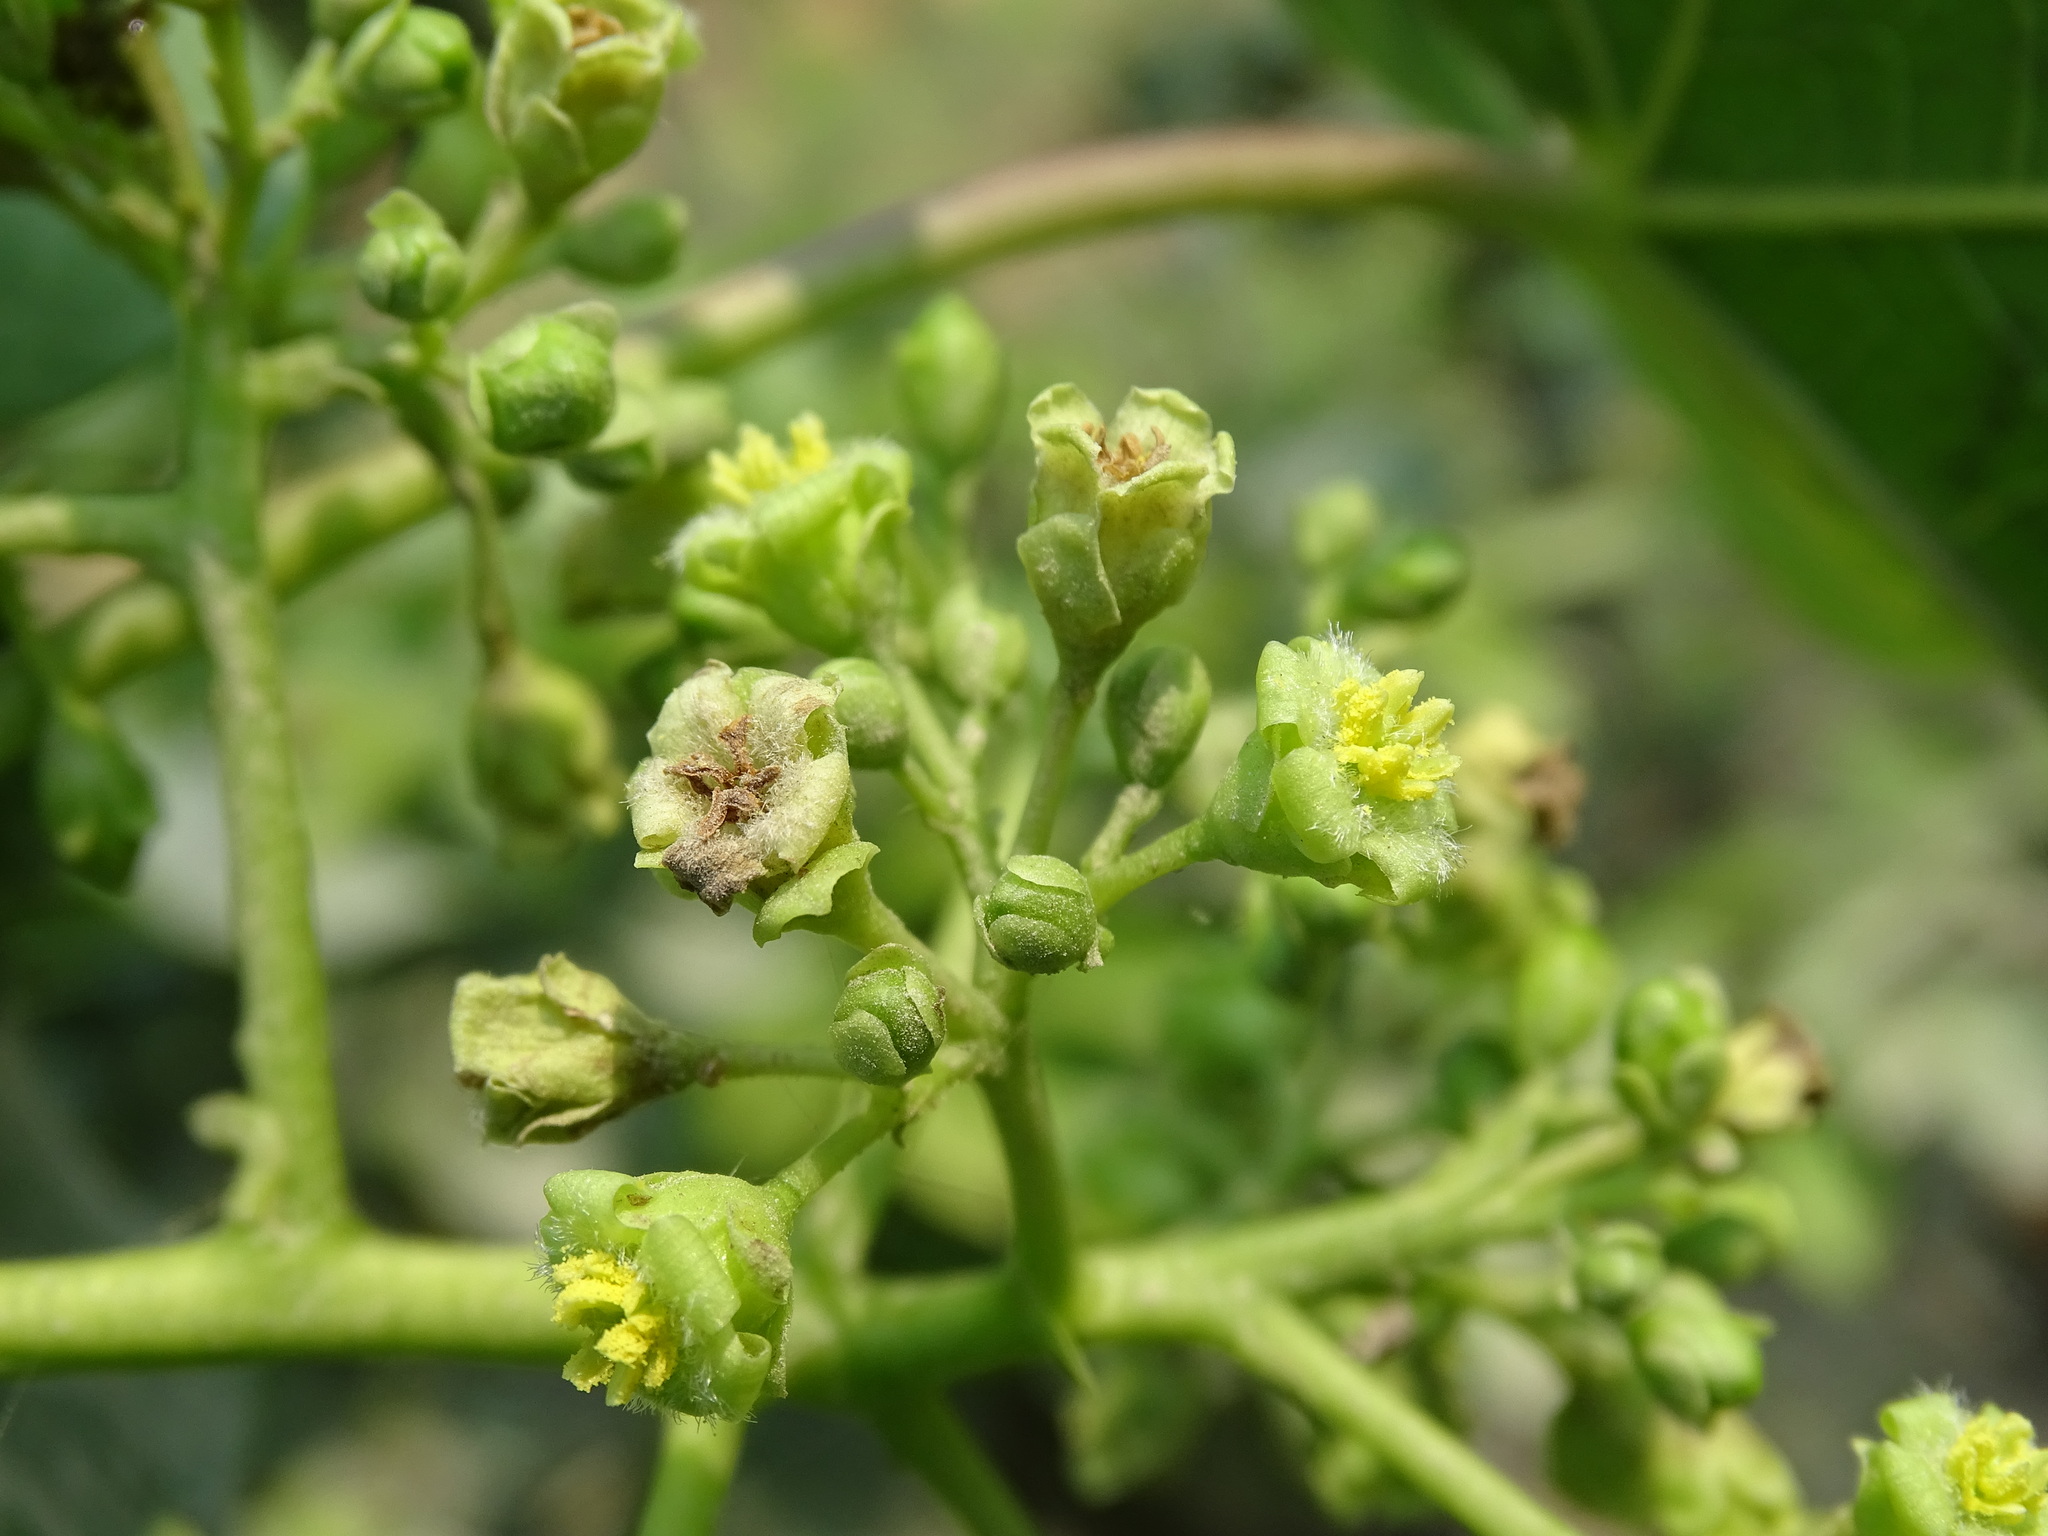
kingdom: Plantae
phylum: Tracheophyta
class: Magnoliopsida
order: Malpighiales
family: Euphorbiaceae
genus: Jatropha
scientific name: Jatropha curcas
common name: Barbados nut
